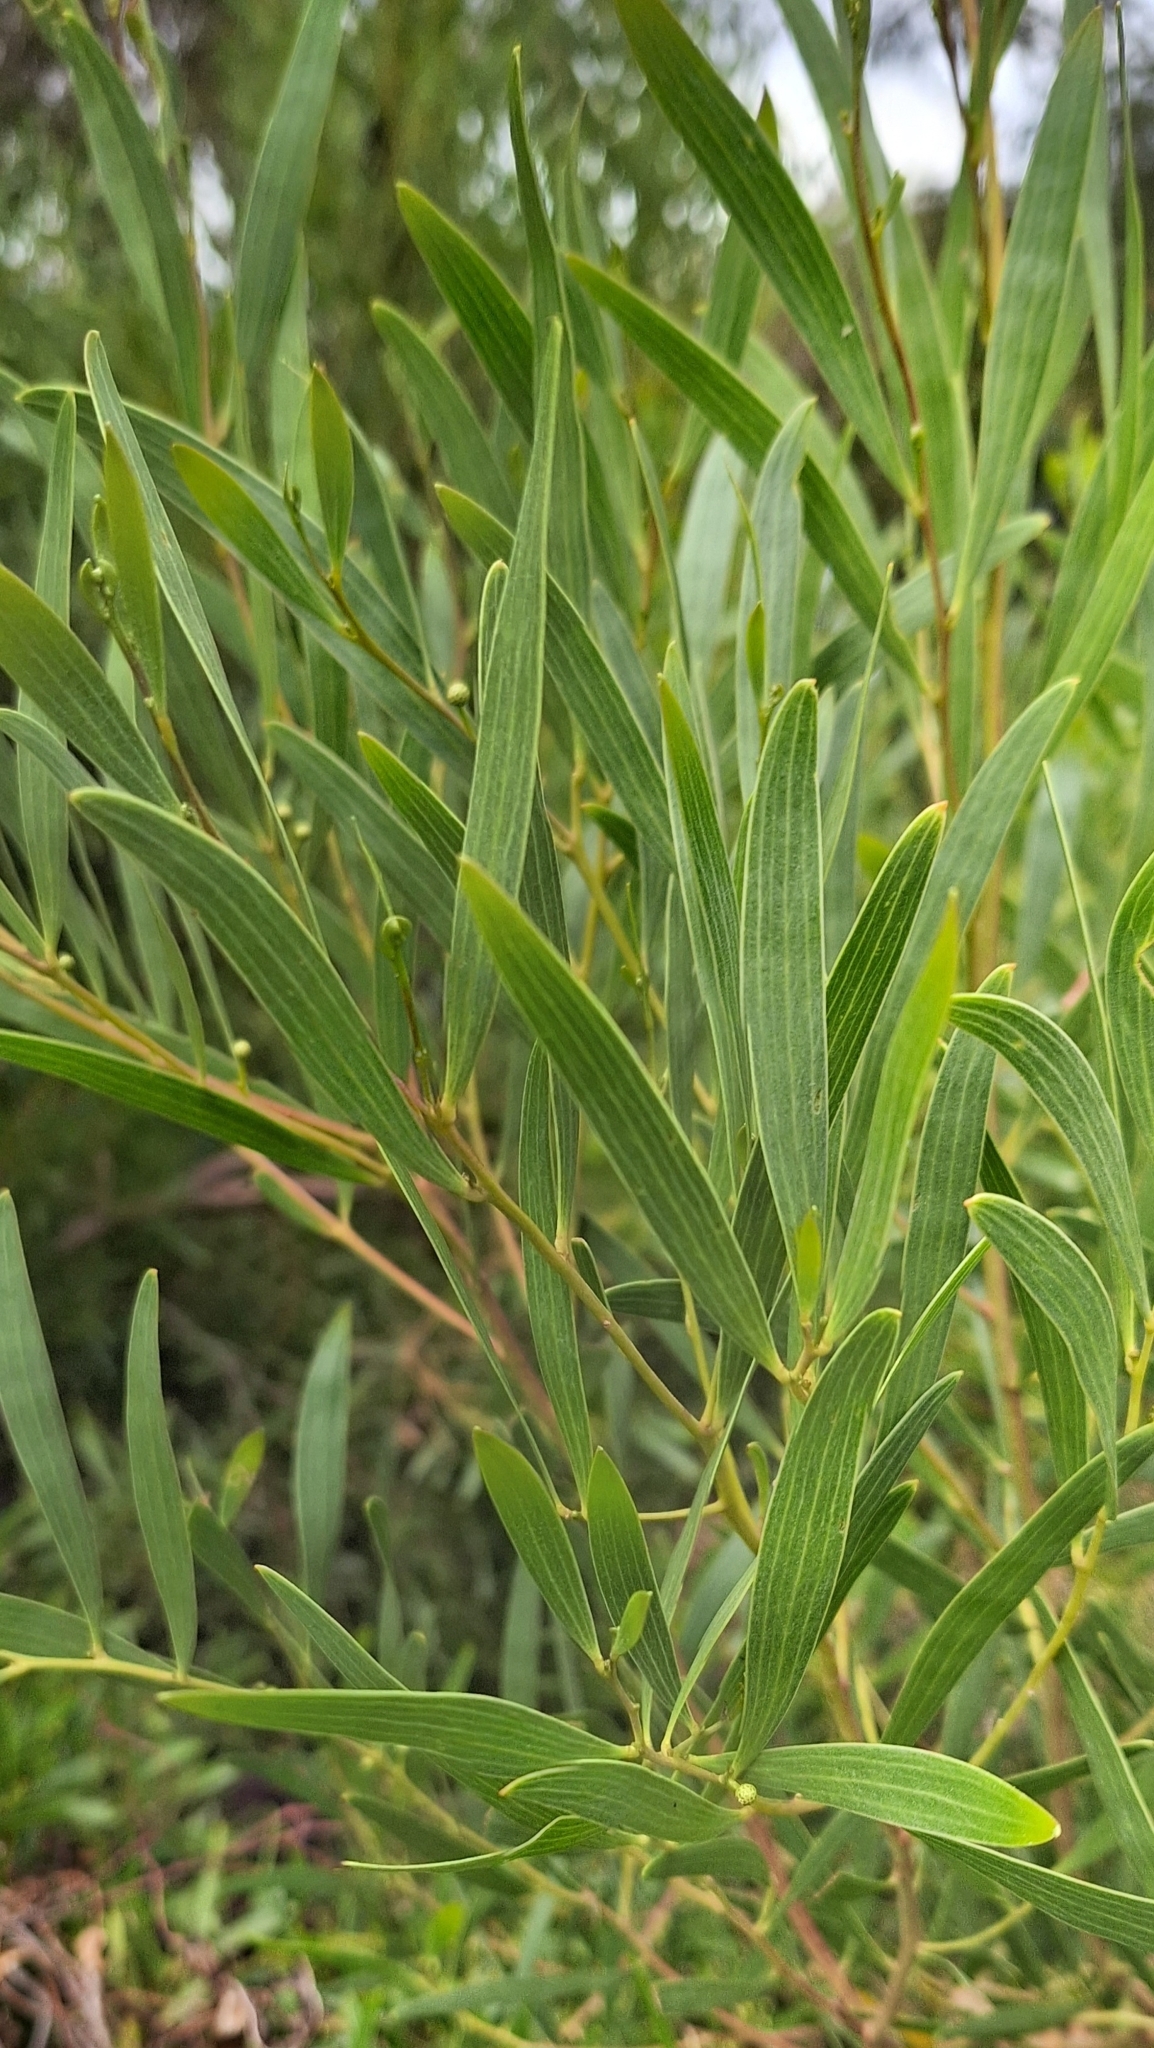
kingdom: Plantae
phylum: Tracheophyta
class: Magnoliopsida
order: Fabales
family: Fabaceae
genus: Acacia
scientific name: Acacia cyclops
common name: Coastal wattle
